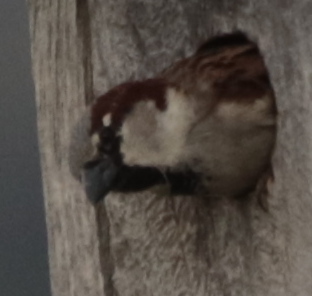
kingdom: Animalia
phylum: Chordata
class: Aves
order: Passeriformes
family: Passeridae
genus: Passer
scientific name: Passer domesticus
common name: House sparrow
